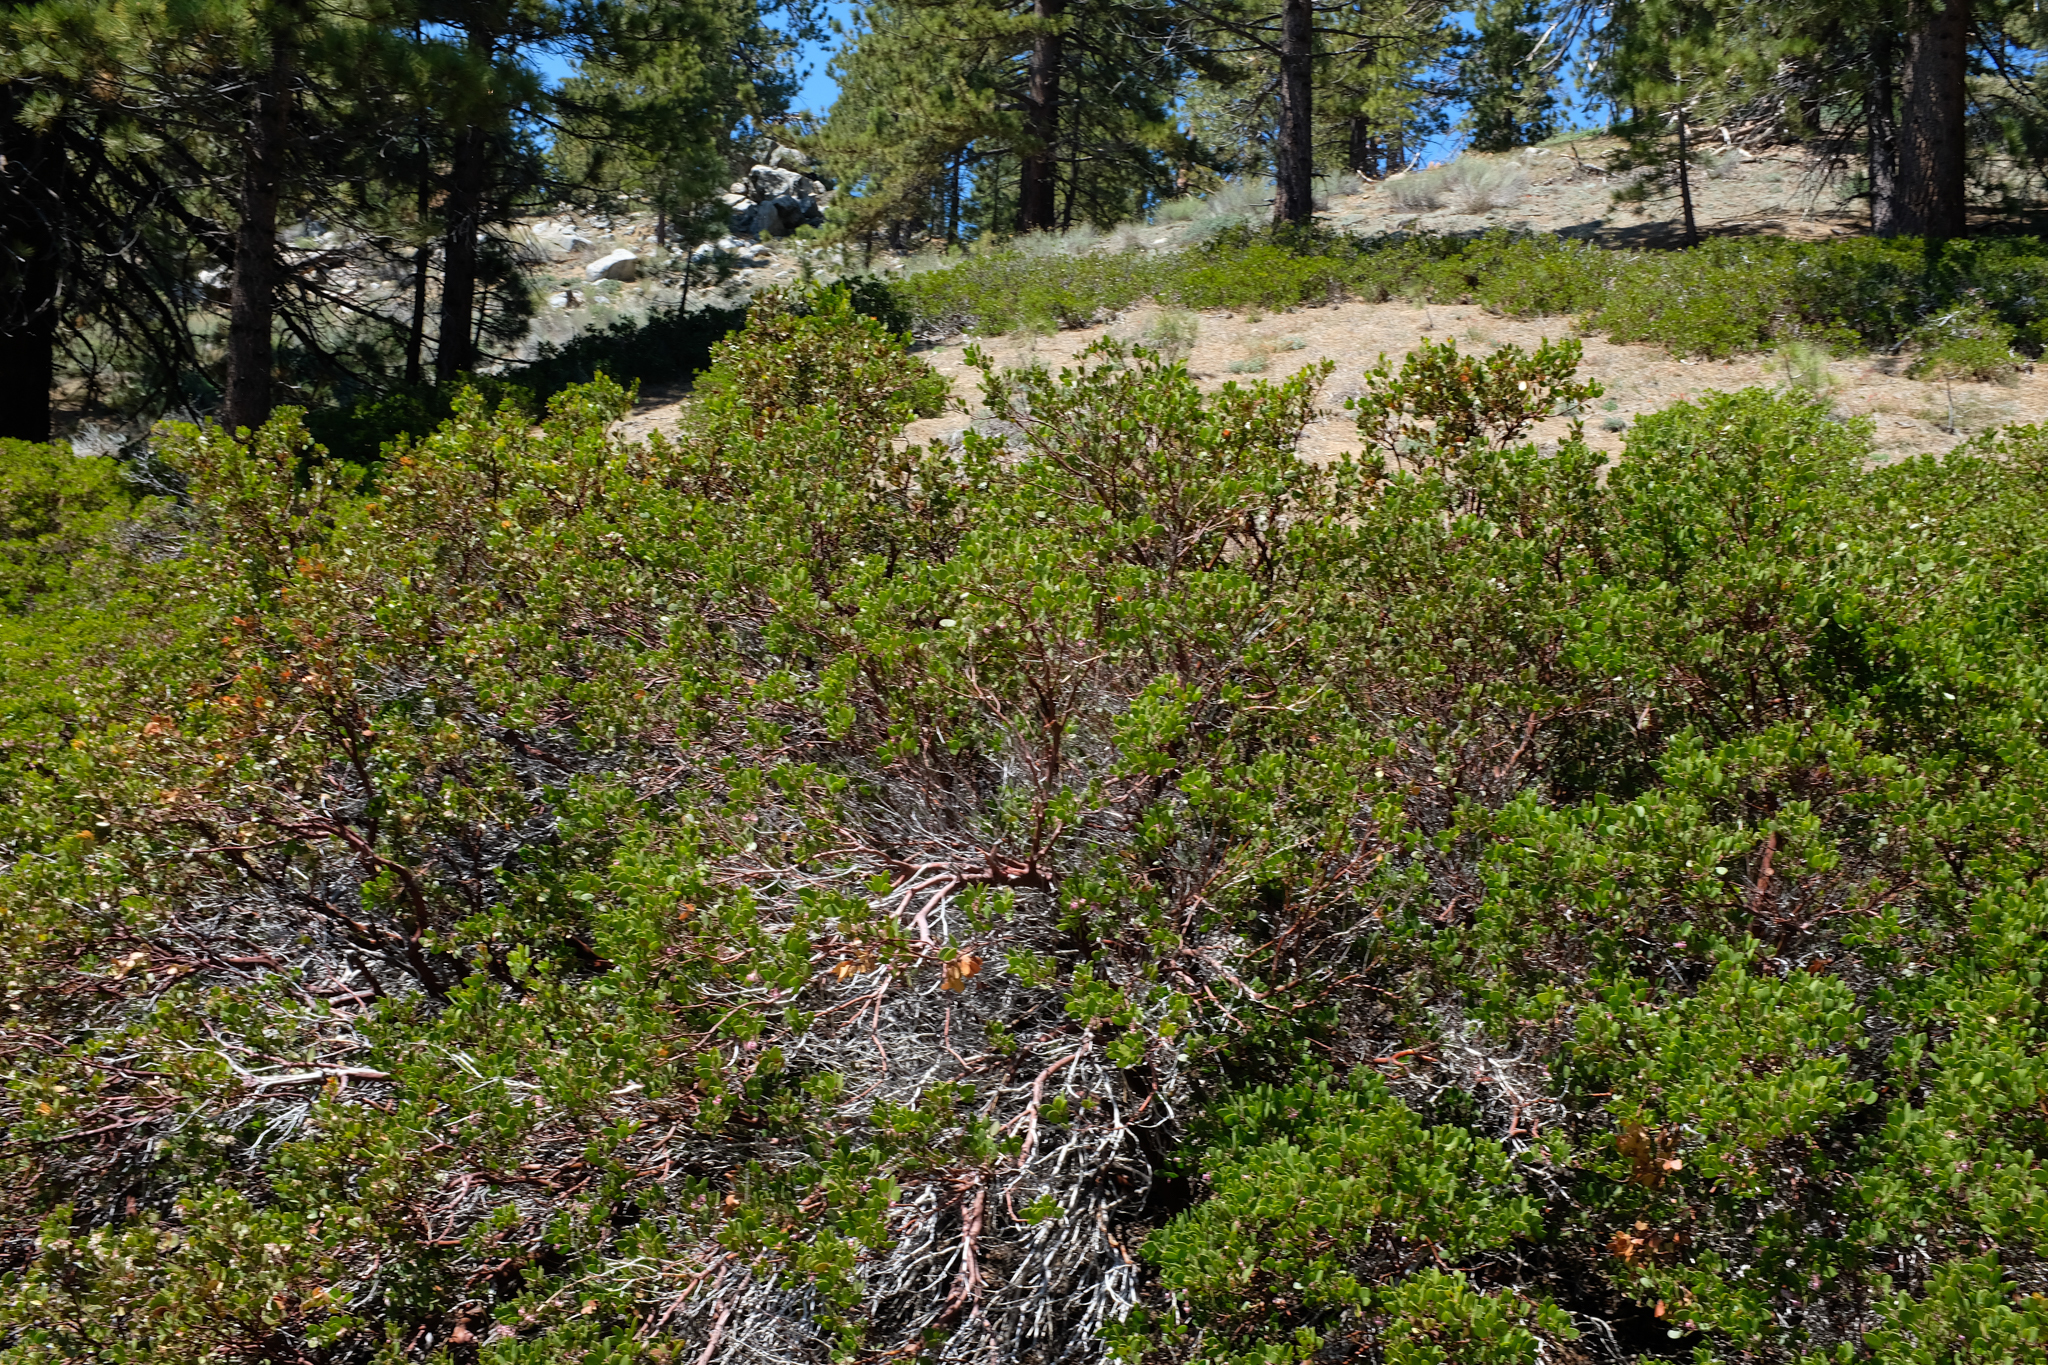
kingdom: Plantae
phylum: Tracheophyta
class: Magnoliopsida
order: Ericales
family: Ericaceae
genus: Arctostaphylos
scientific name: Arctostaphylos parryana
